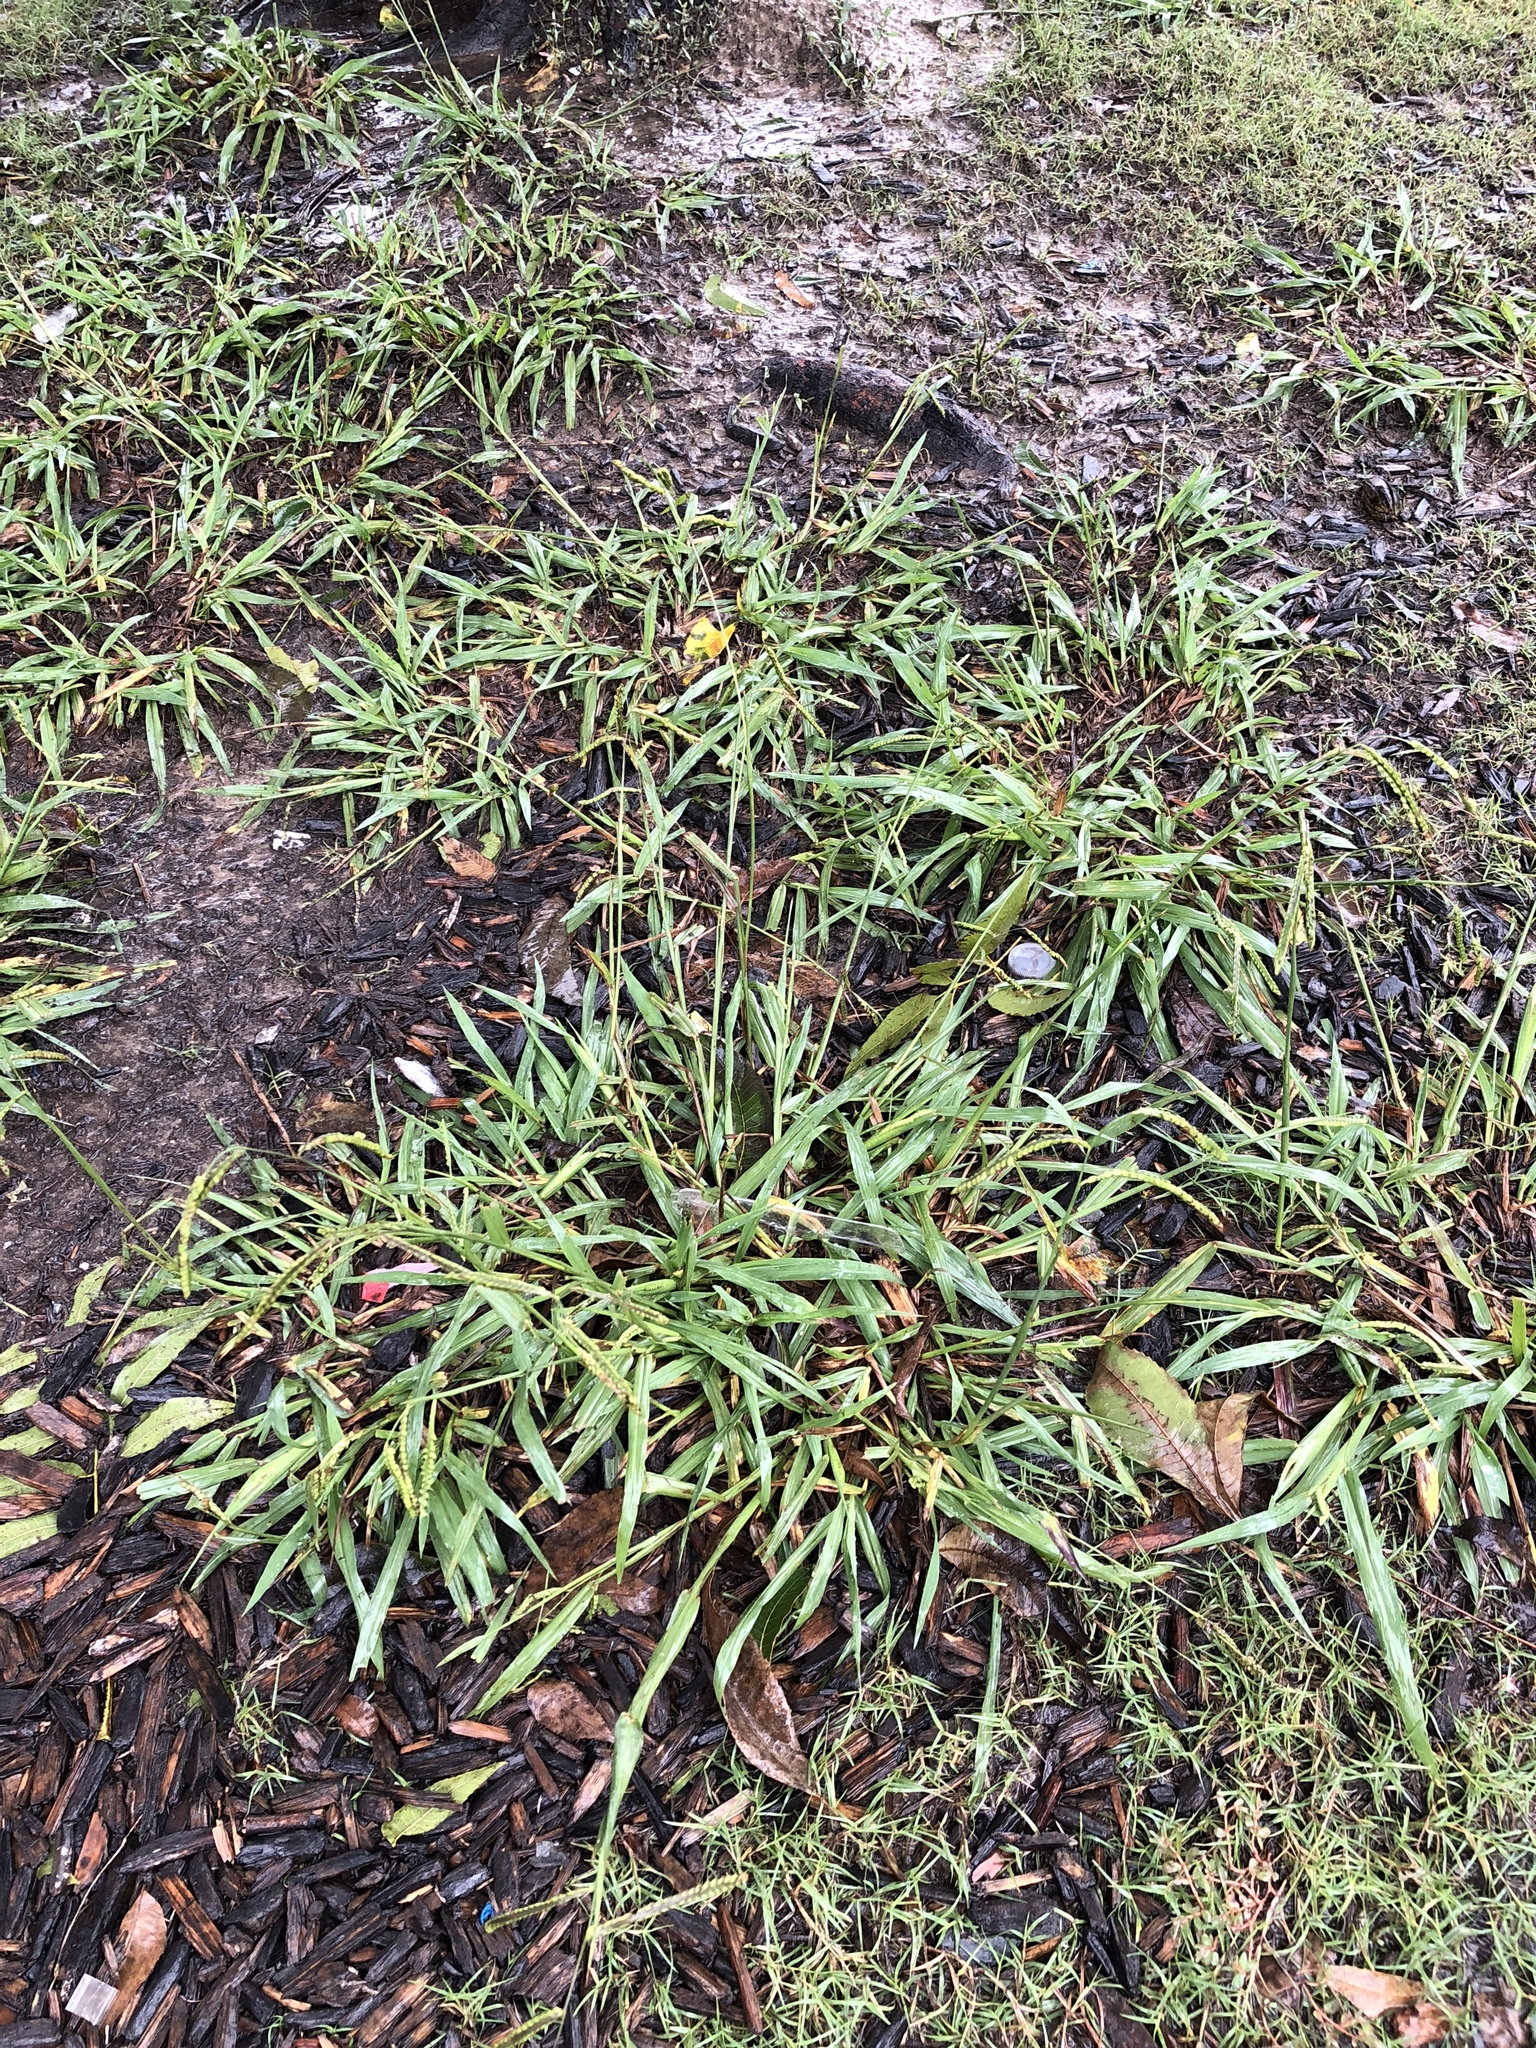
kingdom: Plantae
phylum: Tracheophyta
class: Liliopsida
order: Poales
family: Poaceae
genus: Paspalum
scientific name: Paspalum dilatatum
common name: Dallisgrass
